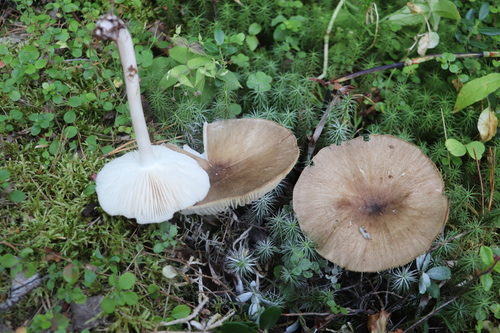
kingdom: Fungi
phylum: Basidiomycota
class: Agaricomycetes
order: Agaricales
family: Tricholomataceae
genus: Megacollybia
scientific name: Megacollybia platyphylla
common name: Whitelaced shank
